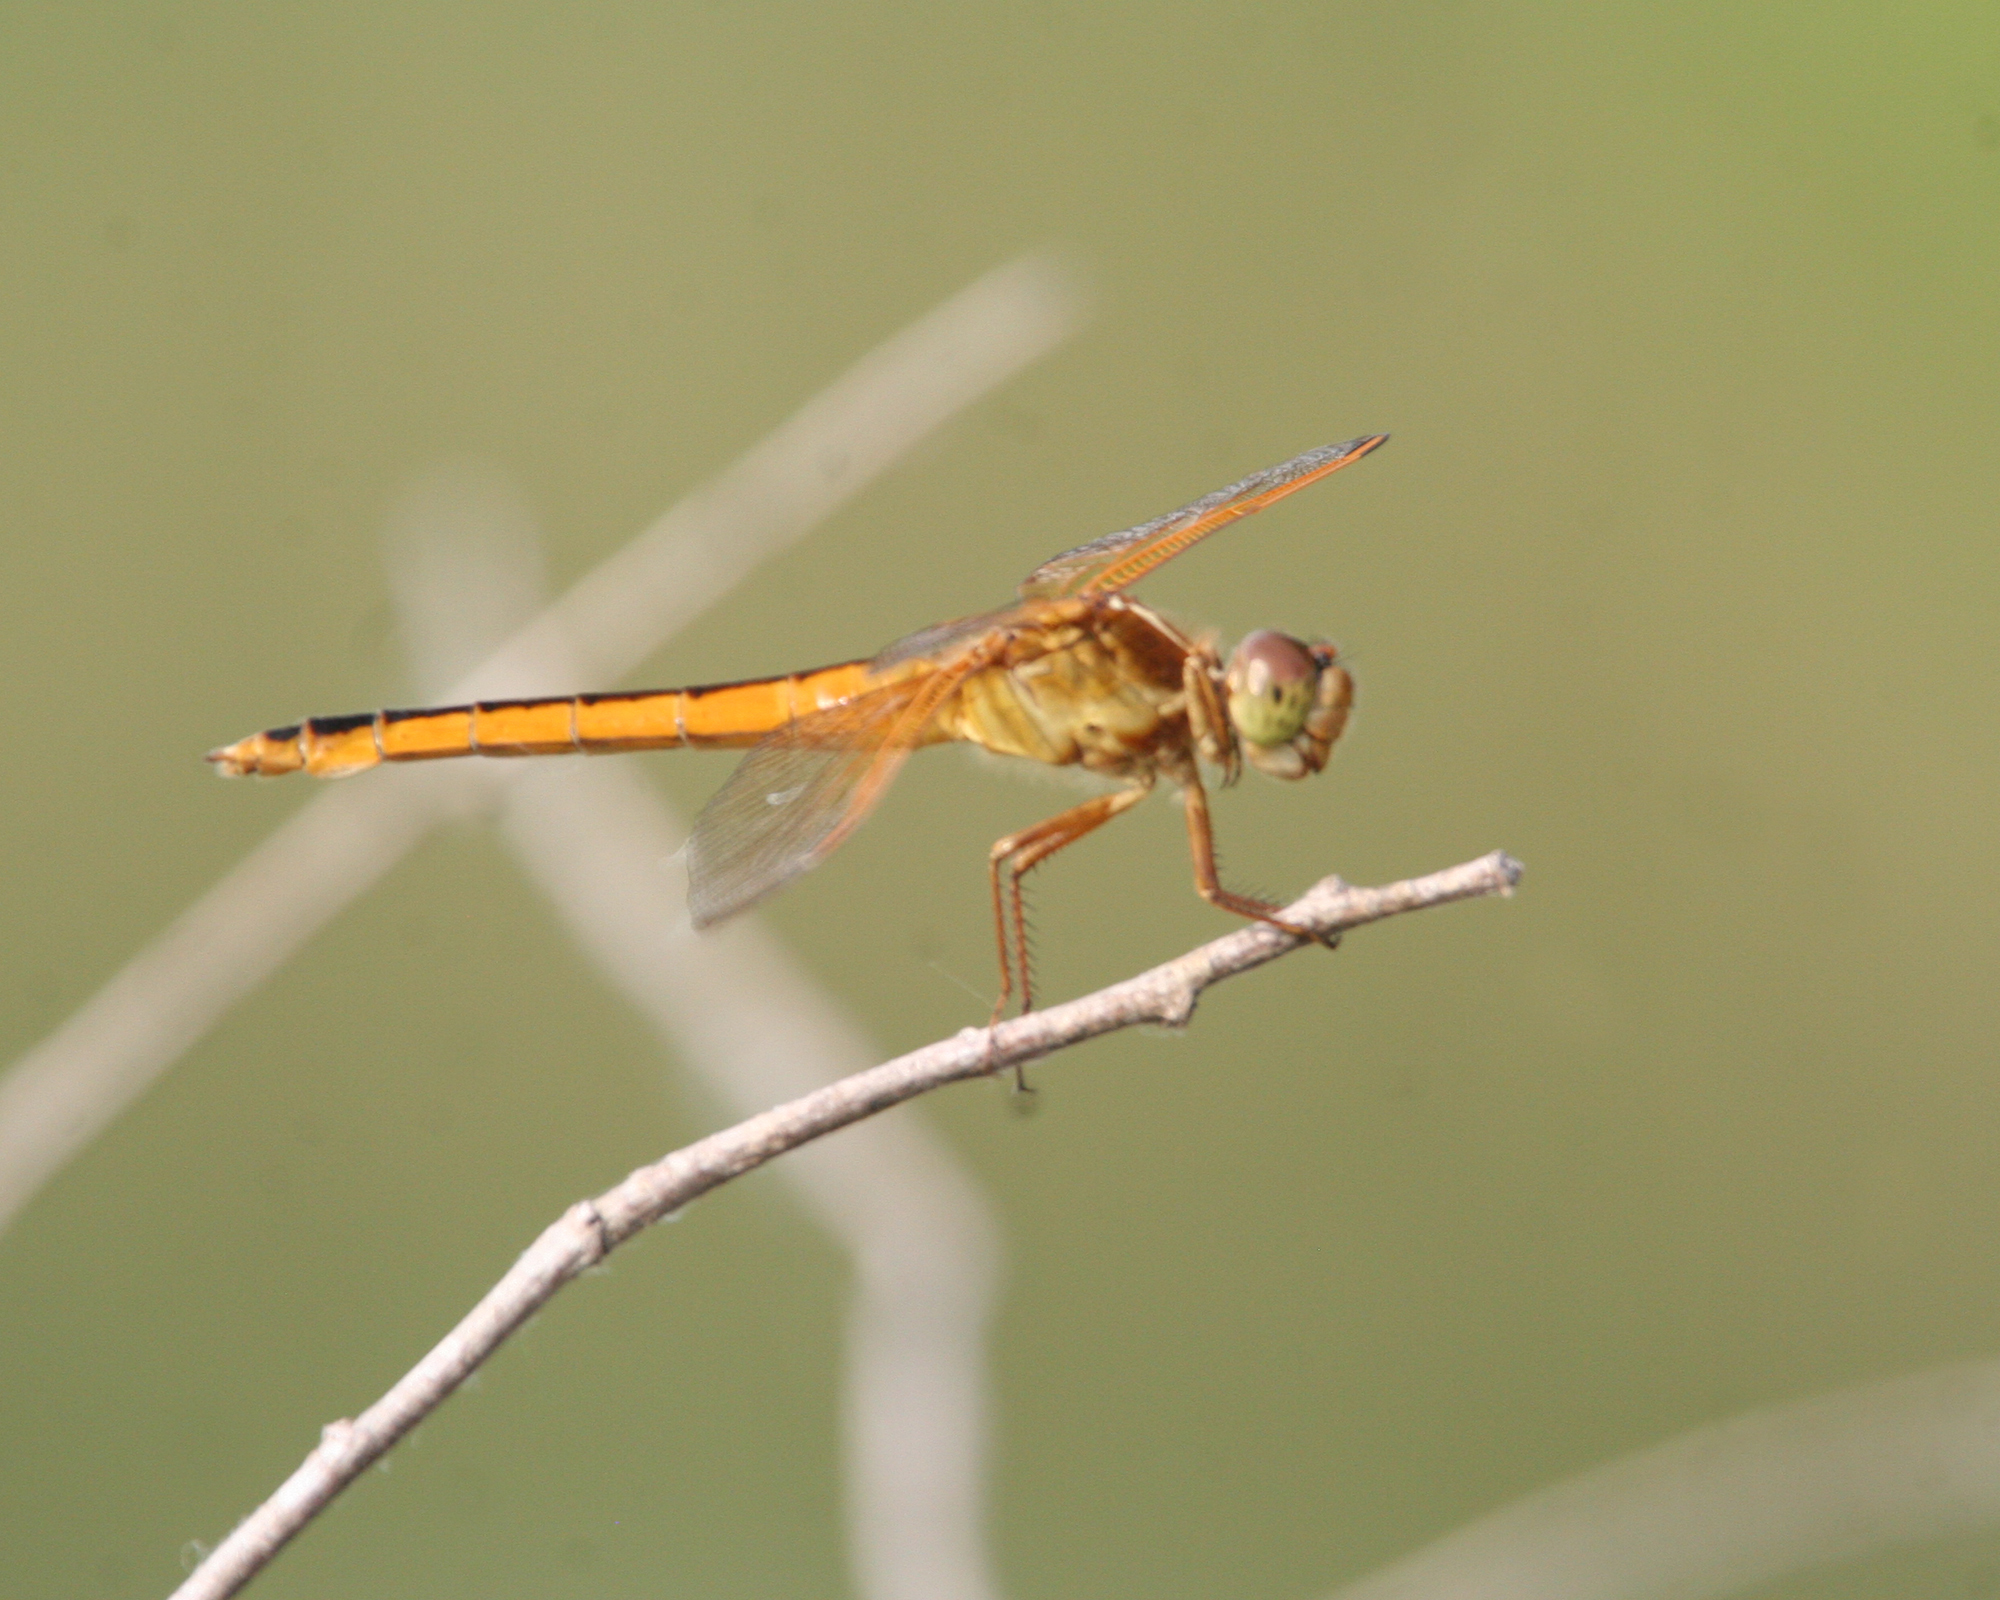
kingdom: Animalia
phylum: Arthropoda
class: Insecta
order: Odonata
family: Libellulidae
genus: Libellula
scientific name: Libellula needhami
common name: Needham's skimmer
